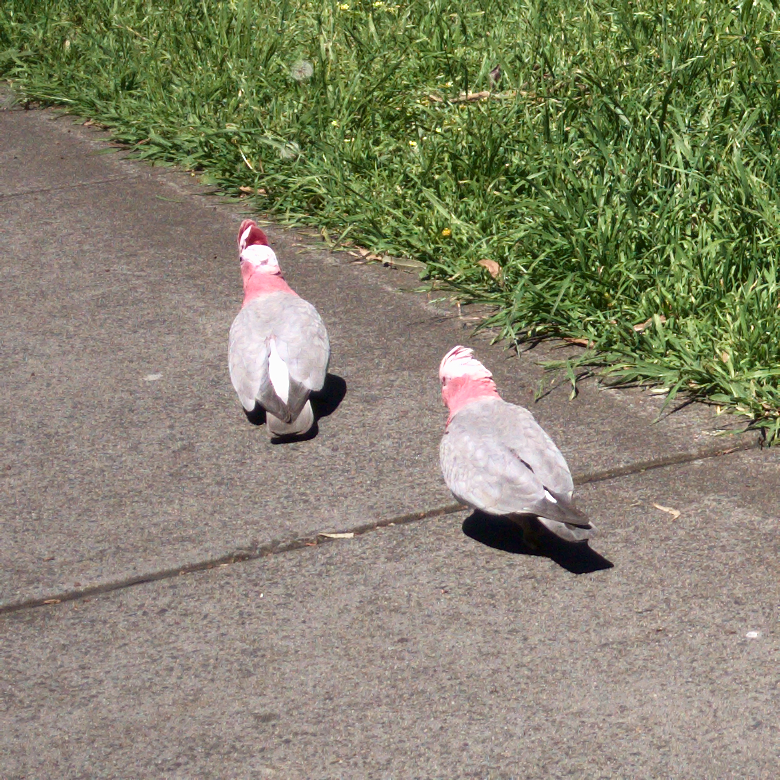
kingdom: Animalia
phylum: Chordata
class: Aves
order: Psittaciformes
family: Psittacidae
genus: Eolophus
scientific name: Eolophus roseicapilla
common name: Galah
